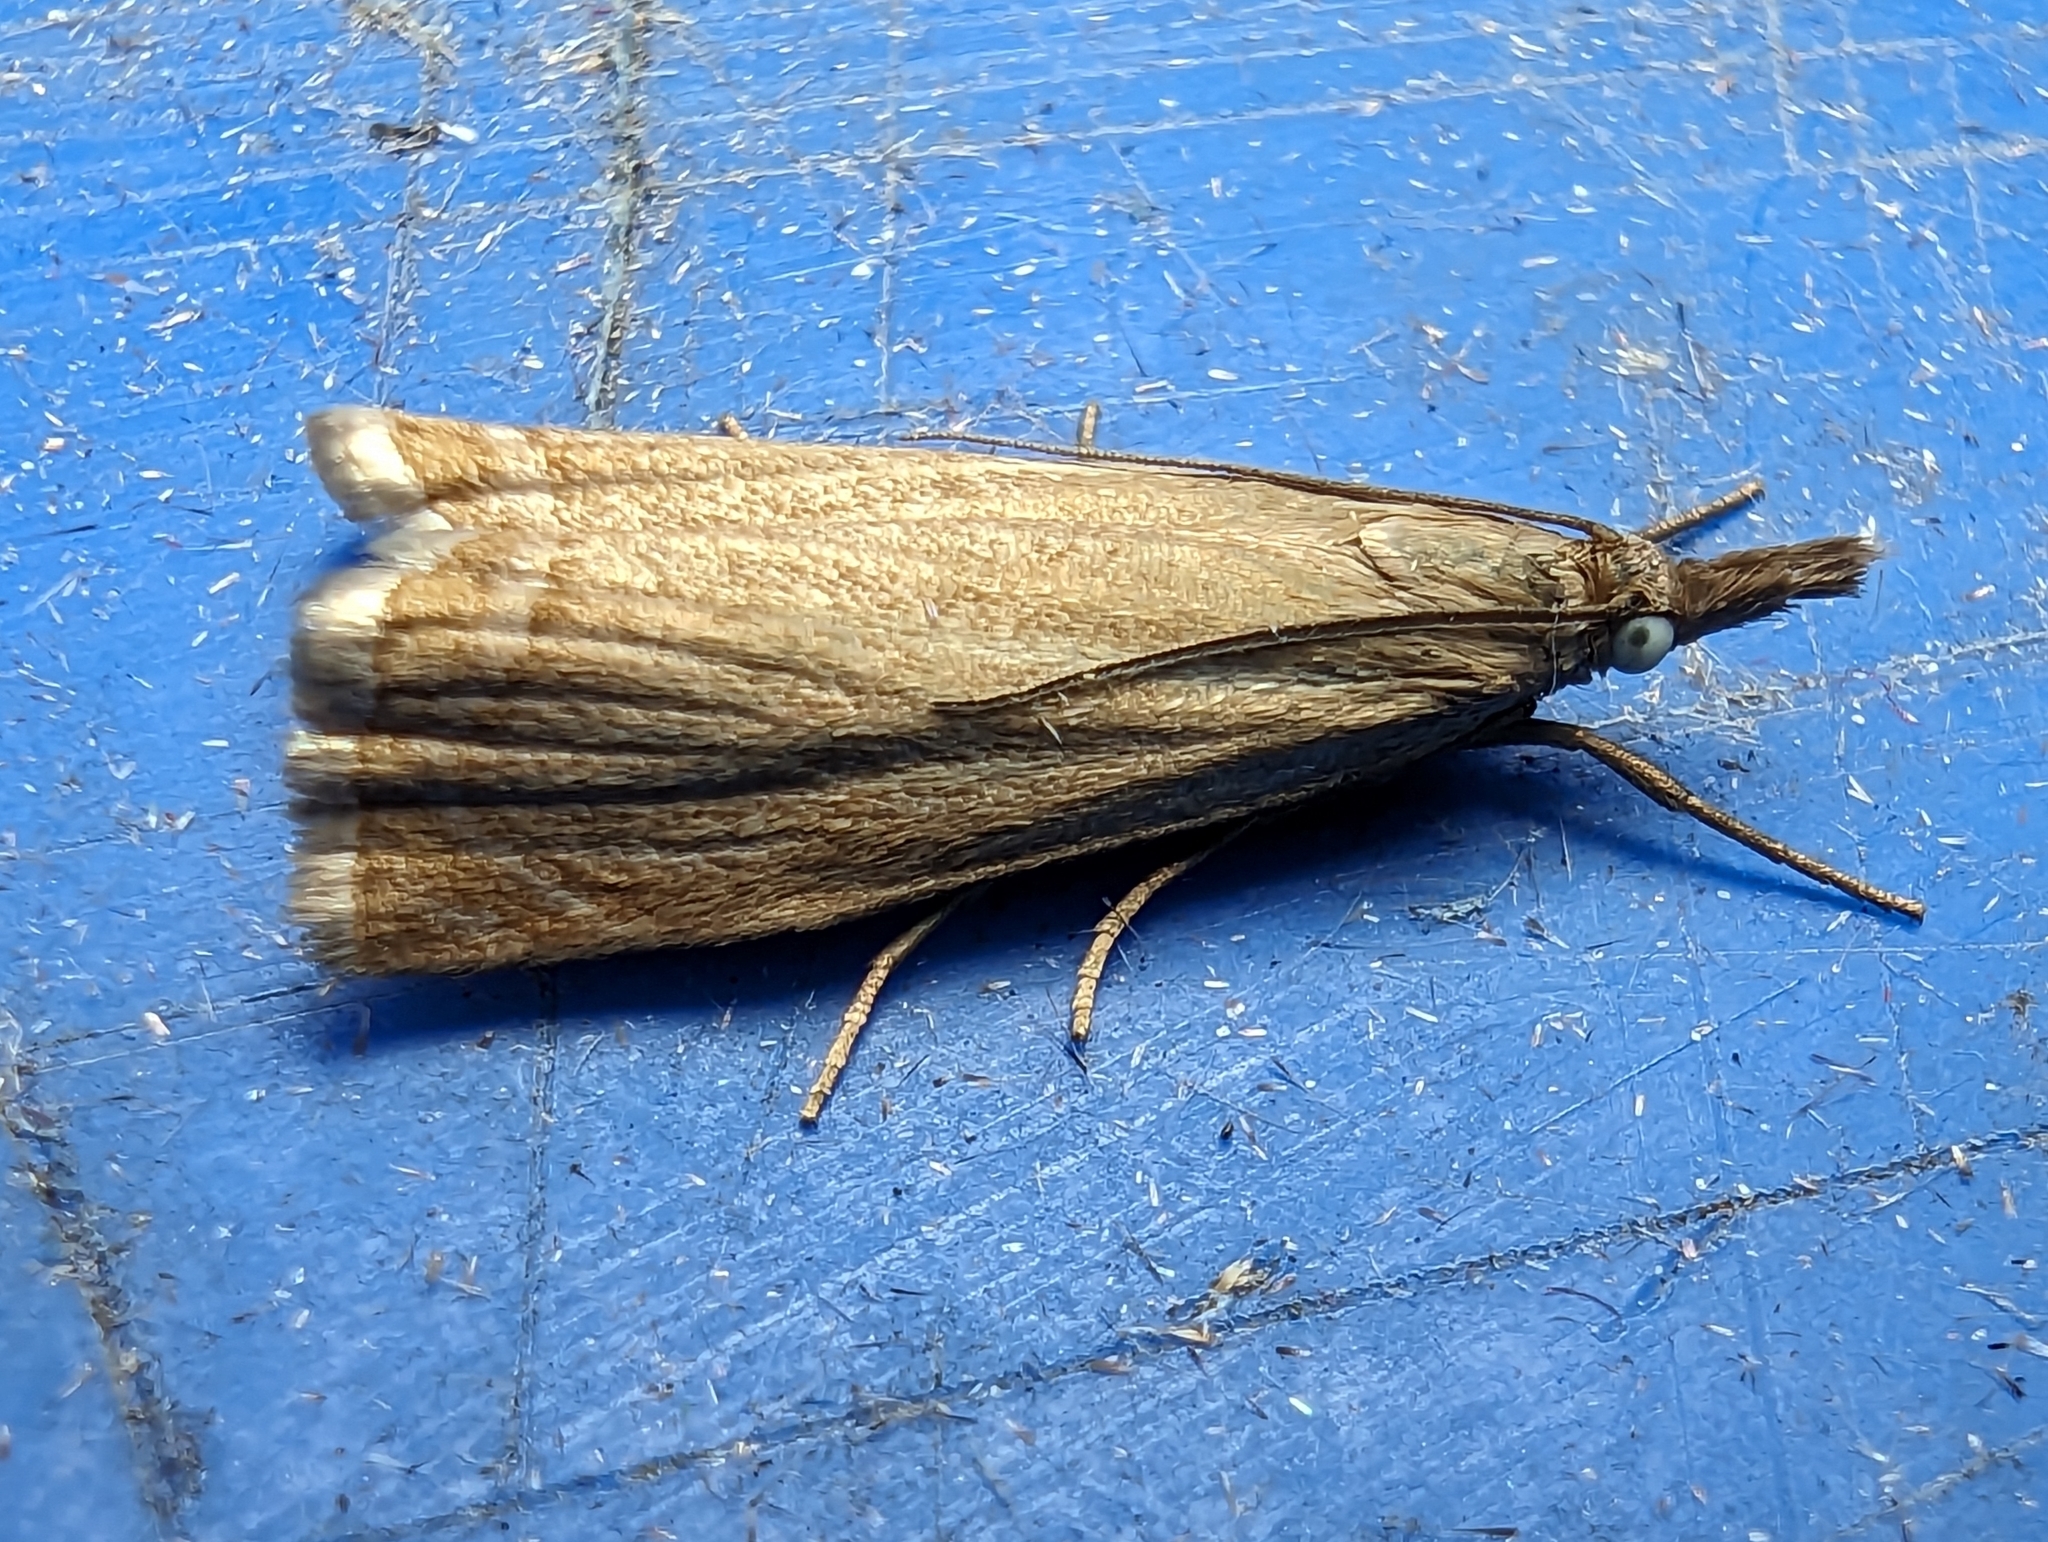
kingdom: Animalia
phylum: Arthropoda
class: Insecta
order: Lepidoptera
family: Crambidae
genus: Chrysoteuchia
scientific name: Chrysoteuchia culmella
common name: Garden grass-veneer
